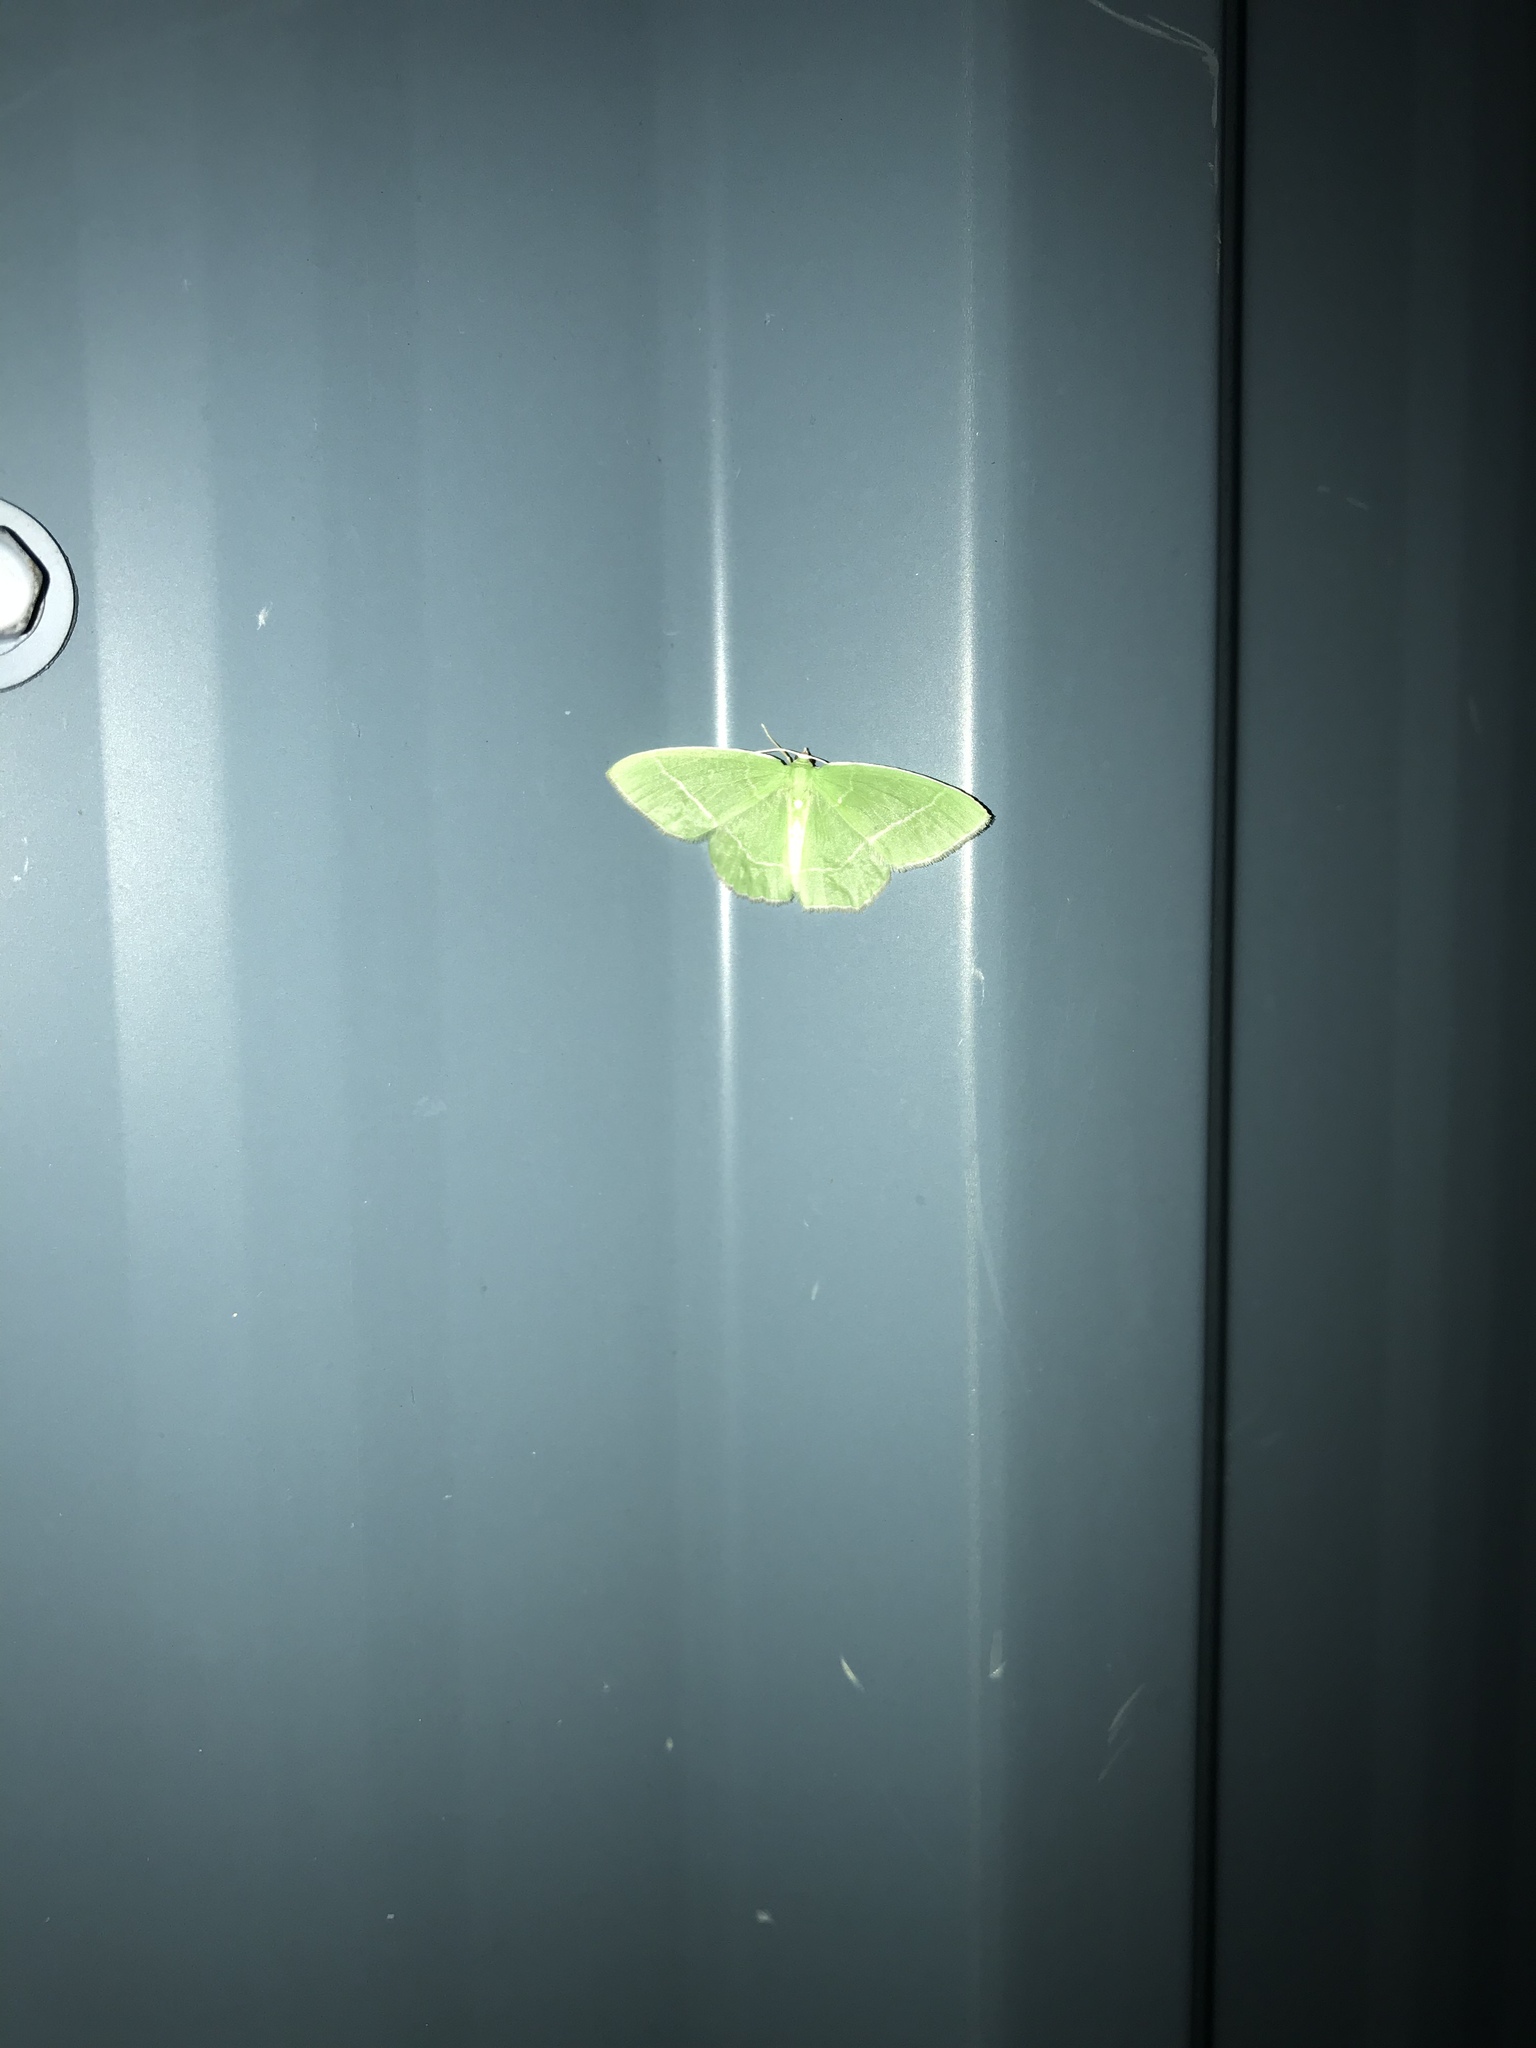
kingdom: Animalia
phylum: Arthropoda
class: Insecta
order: Lepidoptera
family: Geometridae
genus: Synchlora
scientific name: Synchlora aerata
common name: Wavy-lined emerald
